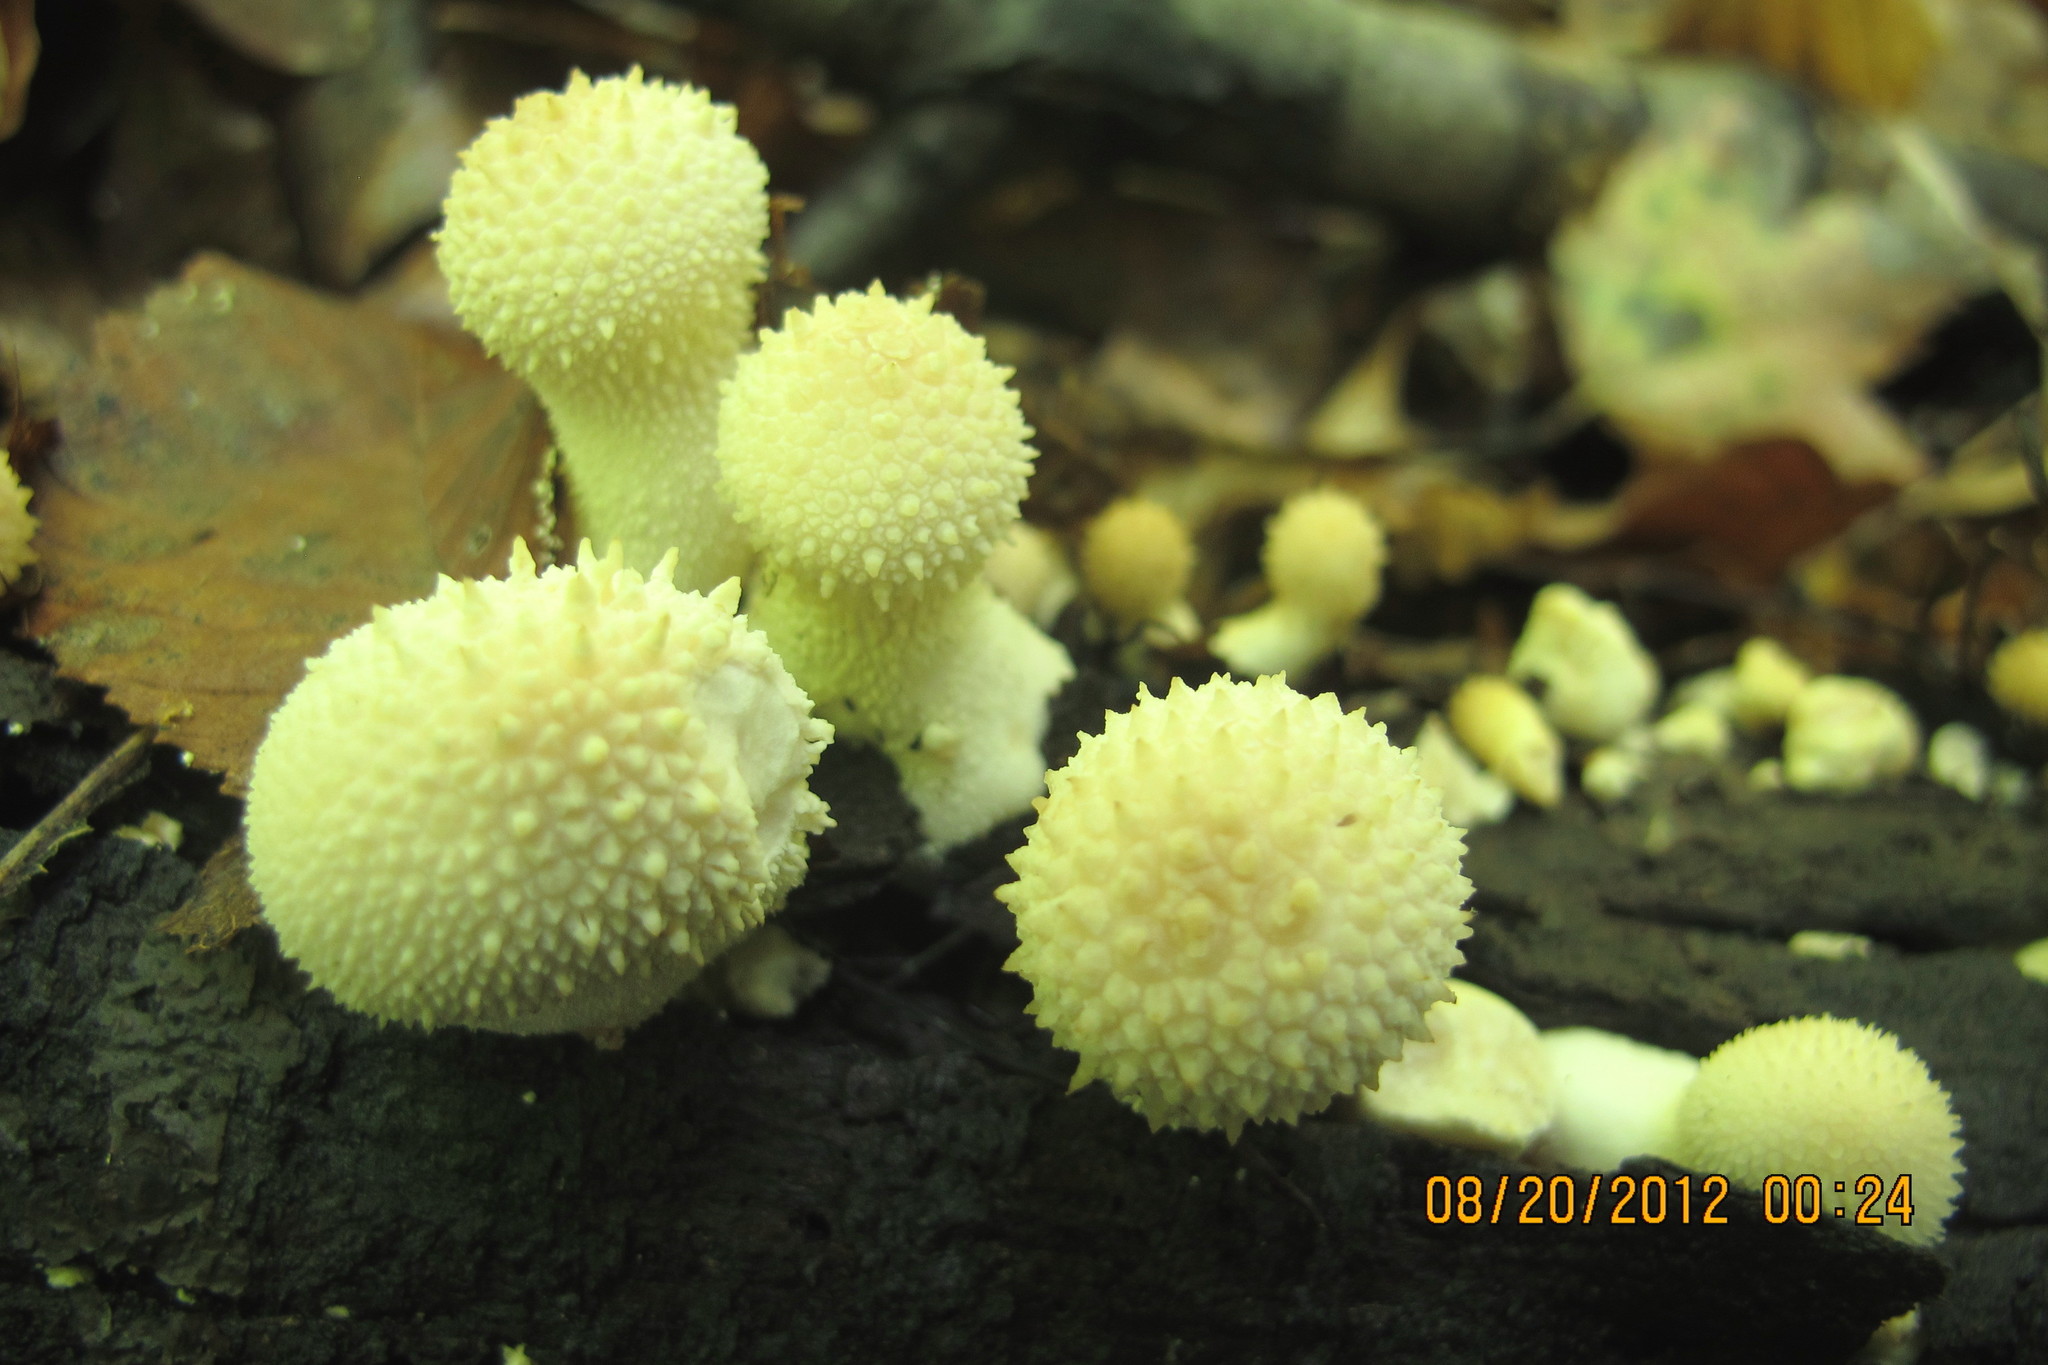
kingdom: Fungi
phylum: Basidiomycota
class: Agaricomycetes
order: Agaricales
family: Lycoperdaceae
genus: Lycoperdon
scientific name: Lycoperdon perlatum
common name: Common puffball
